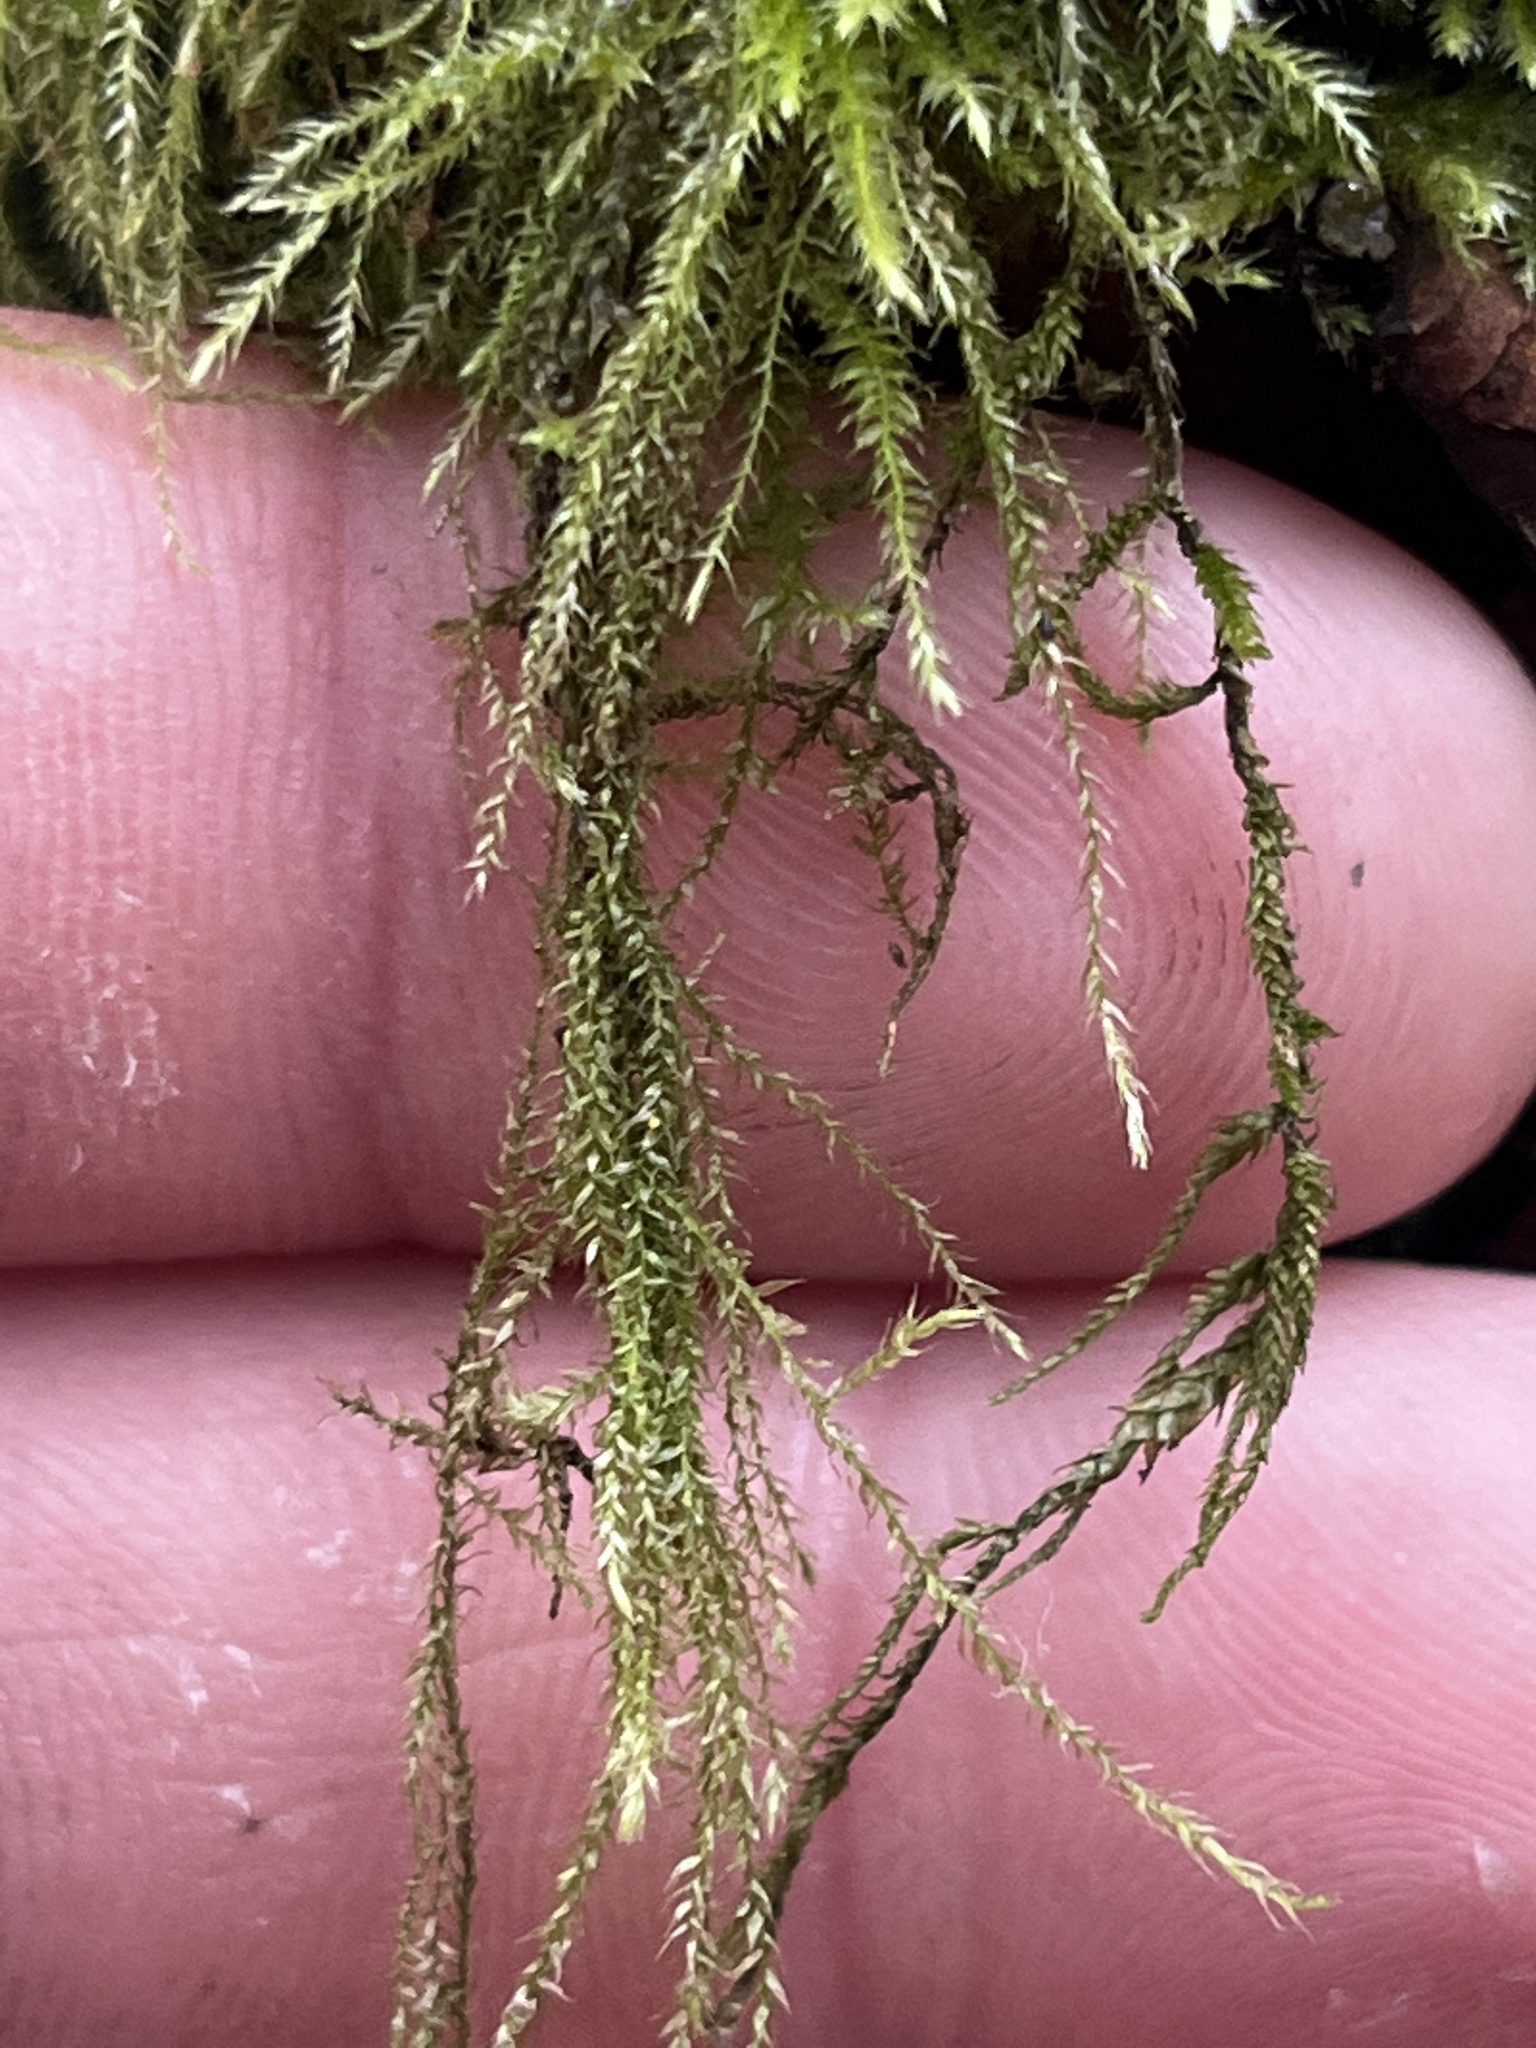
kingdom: Plantae
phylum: Bryophyta
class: Bryopsida
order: Hypnales
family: Lembophyllaceae
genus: Pseudisothecium
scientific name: Pseudisothecium stoloniferum
